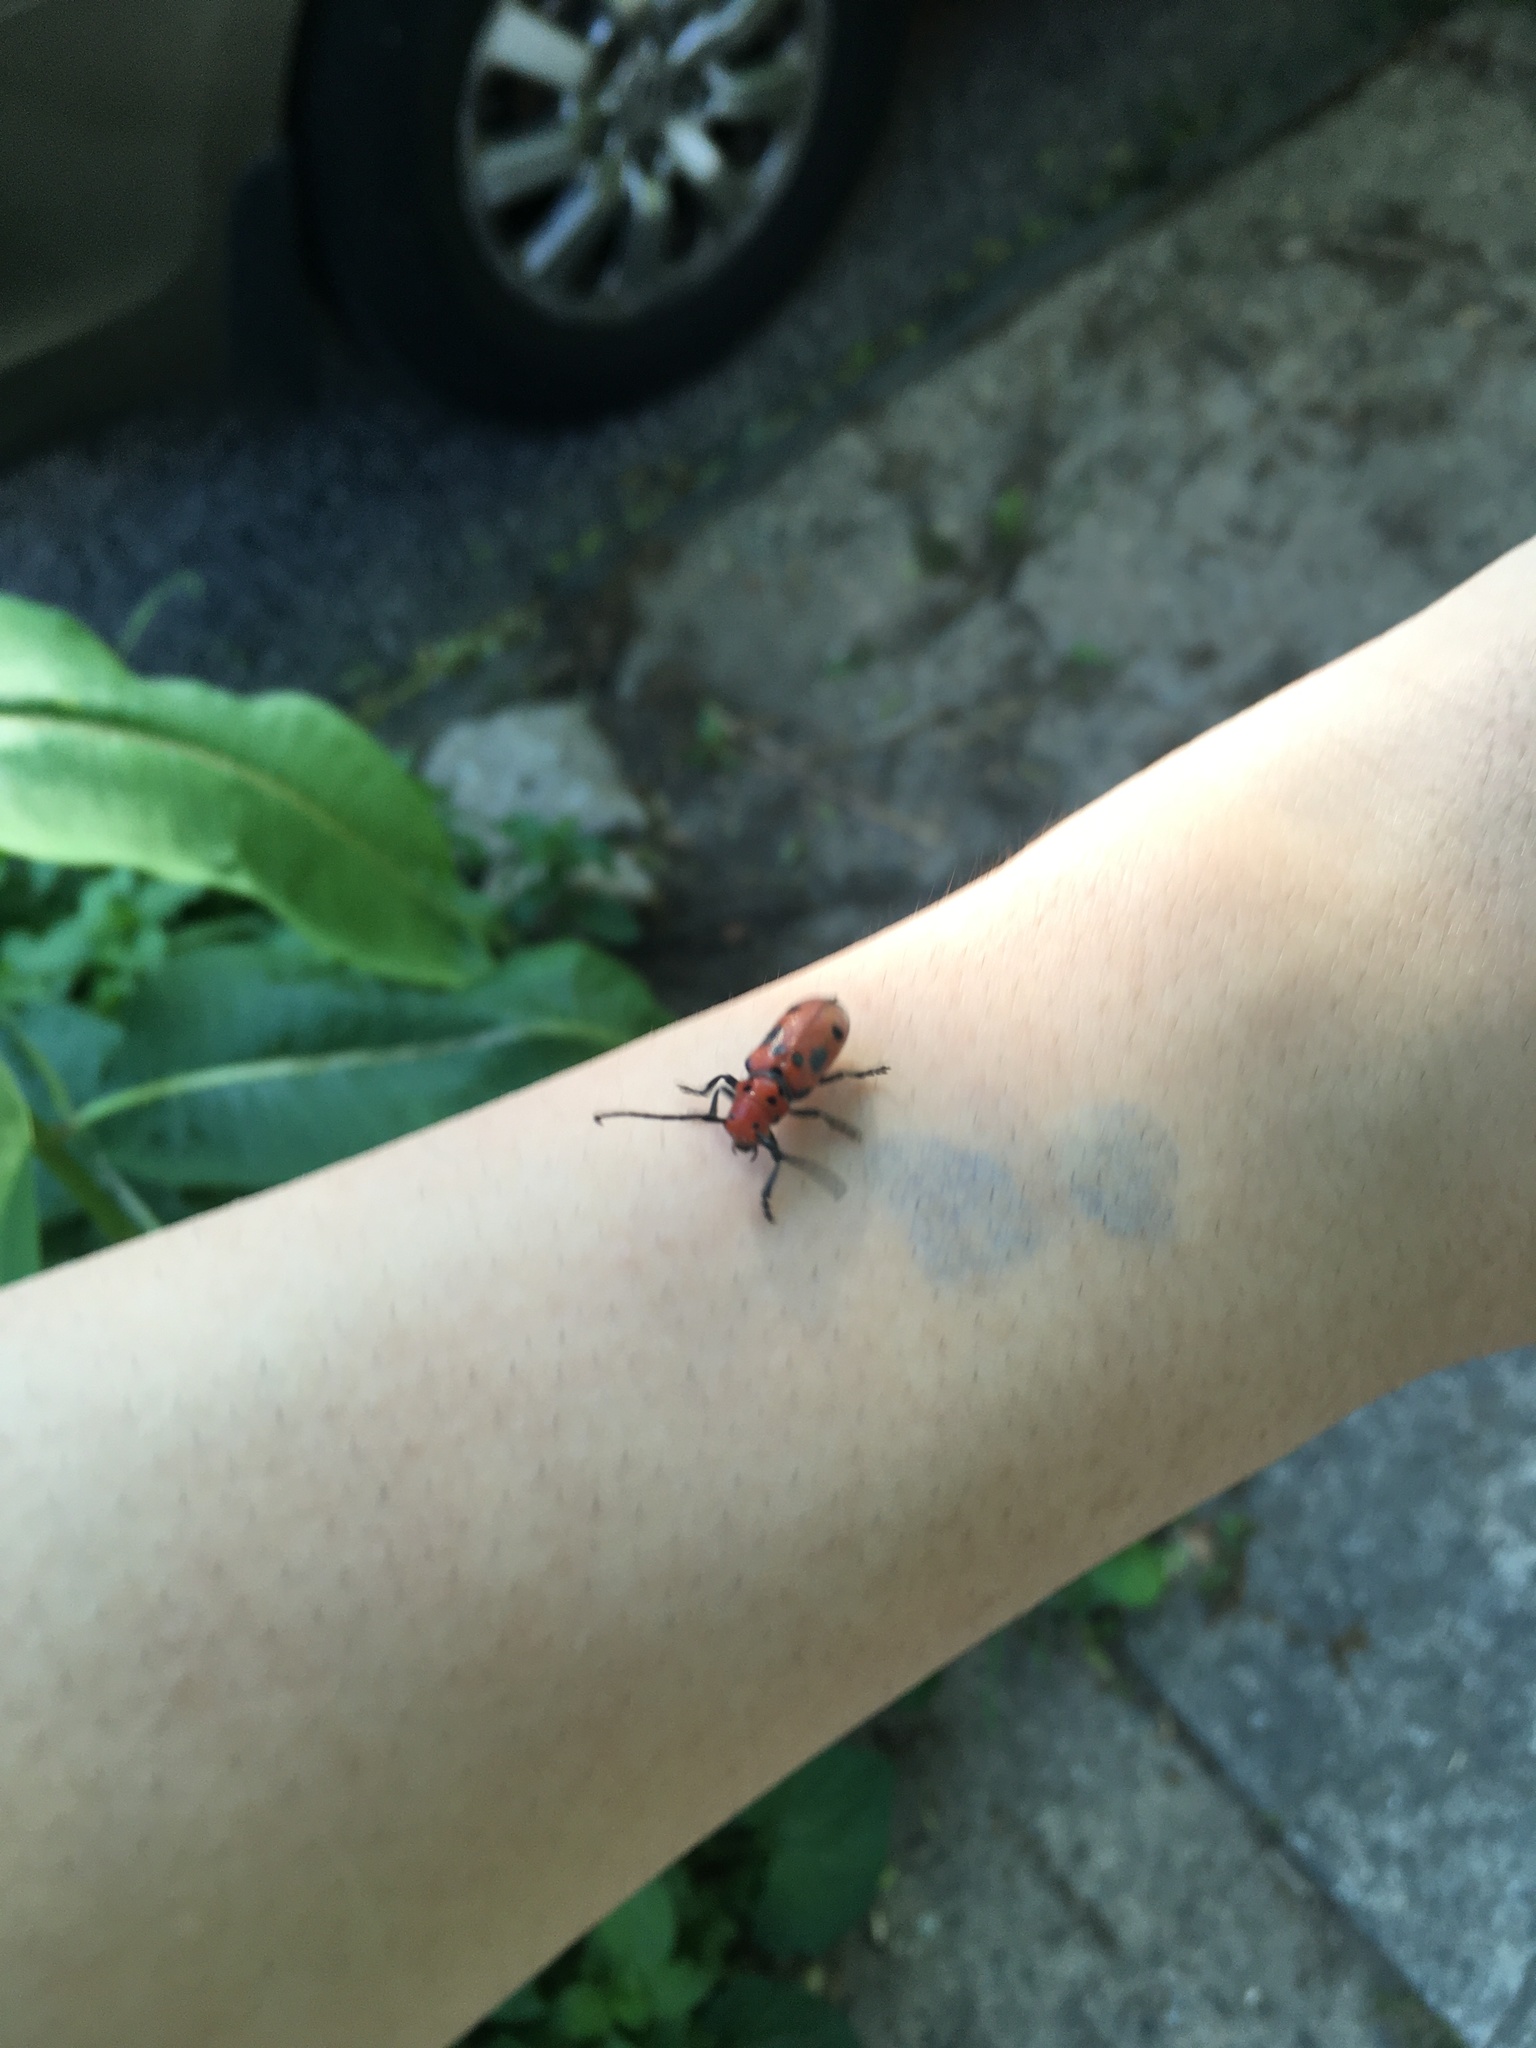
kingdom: Animalia
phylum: Arthropoda
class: Insecta
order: Coleoptera
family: Cerambycidae
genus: Tetraopes
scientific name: Tetraopes tetrophthalmus
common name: Red milkweed beetle
